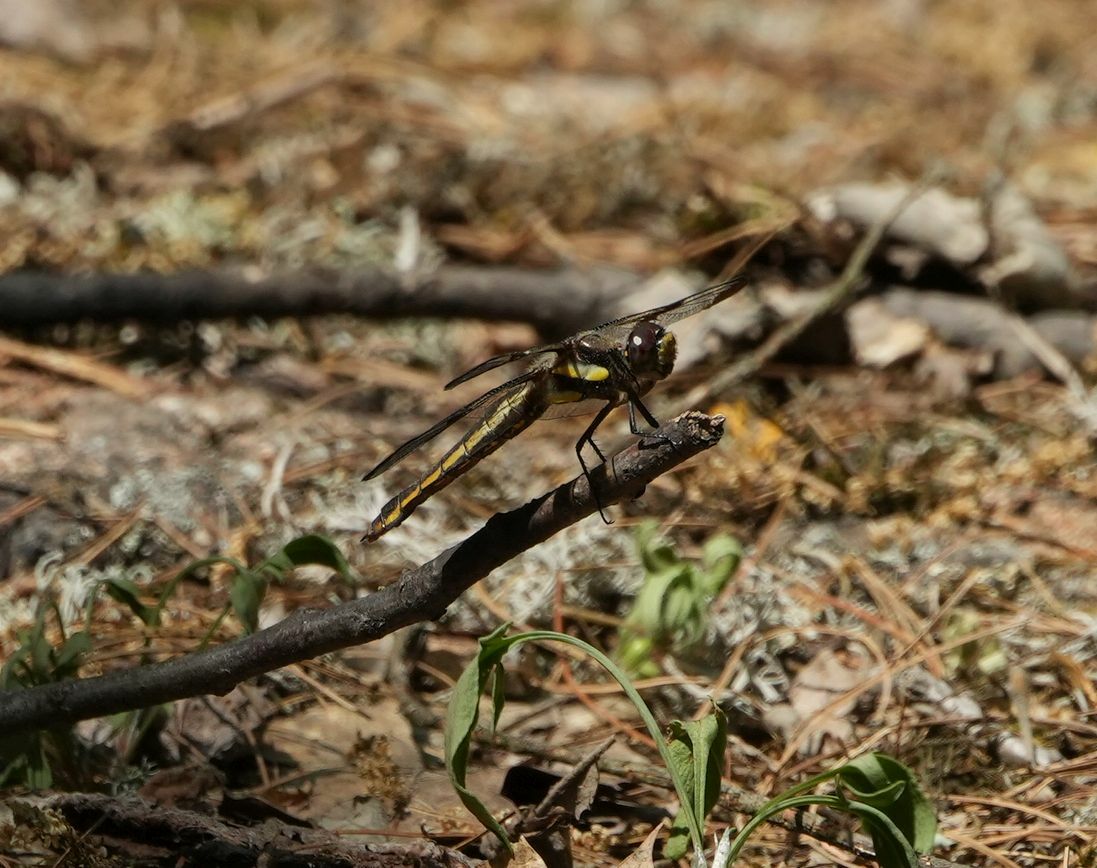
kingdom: Animalia
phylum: Arthropoda
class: Insecta
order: Odonata
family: Libellulidae
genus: Libellula
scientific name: Libellula pulchella
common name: Twelve-spotted skimmer
